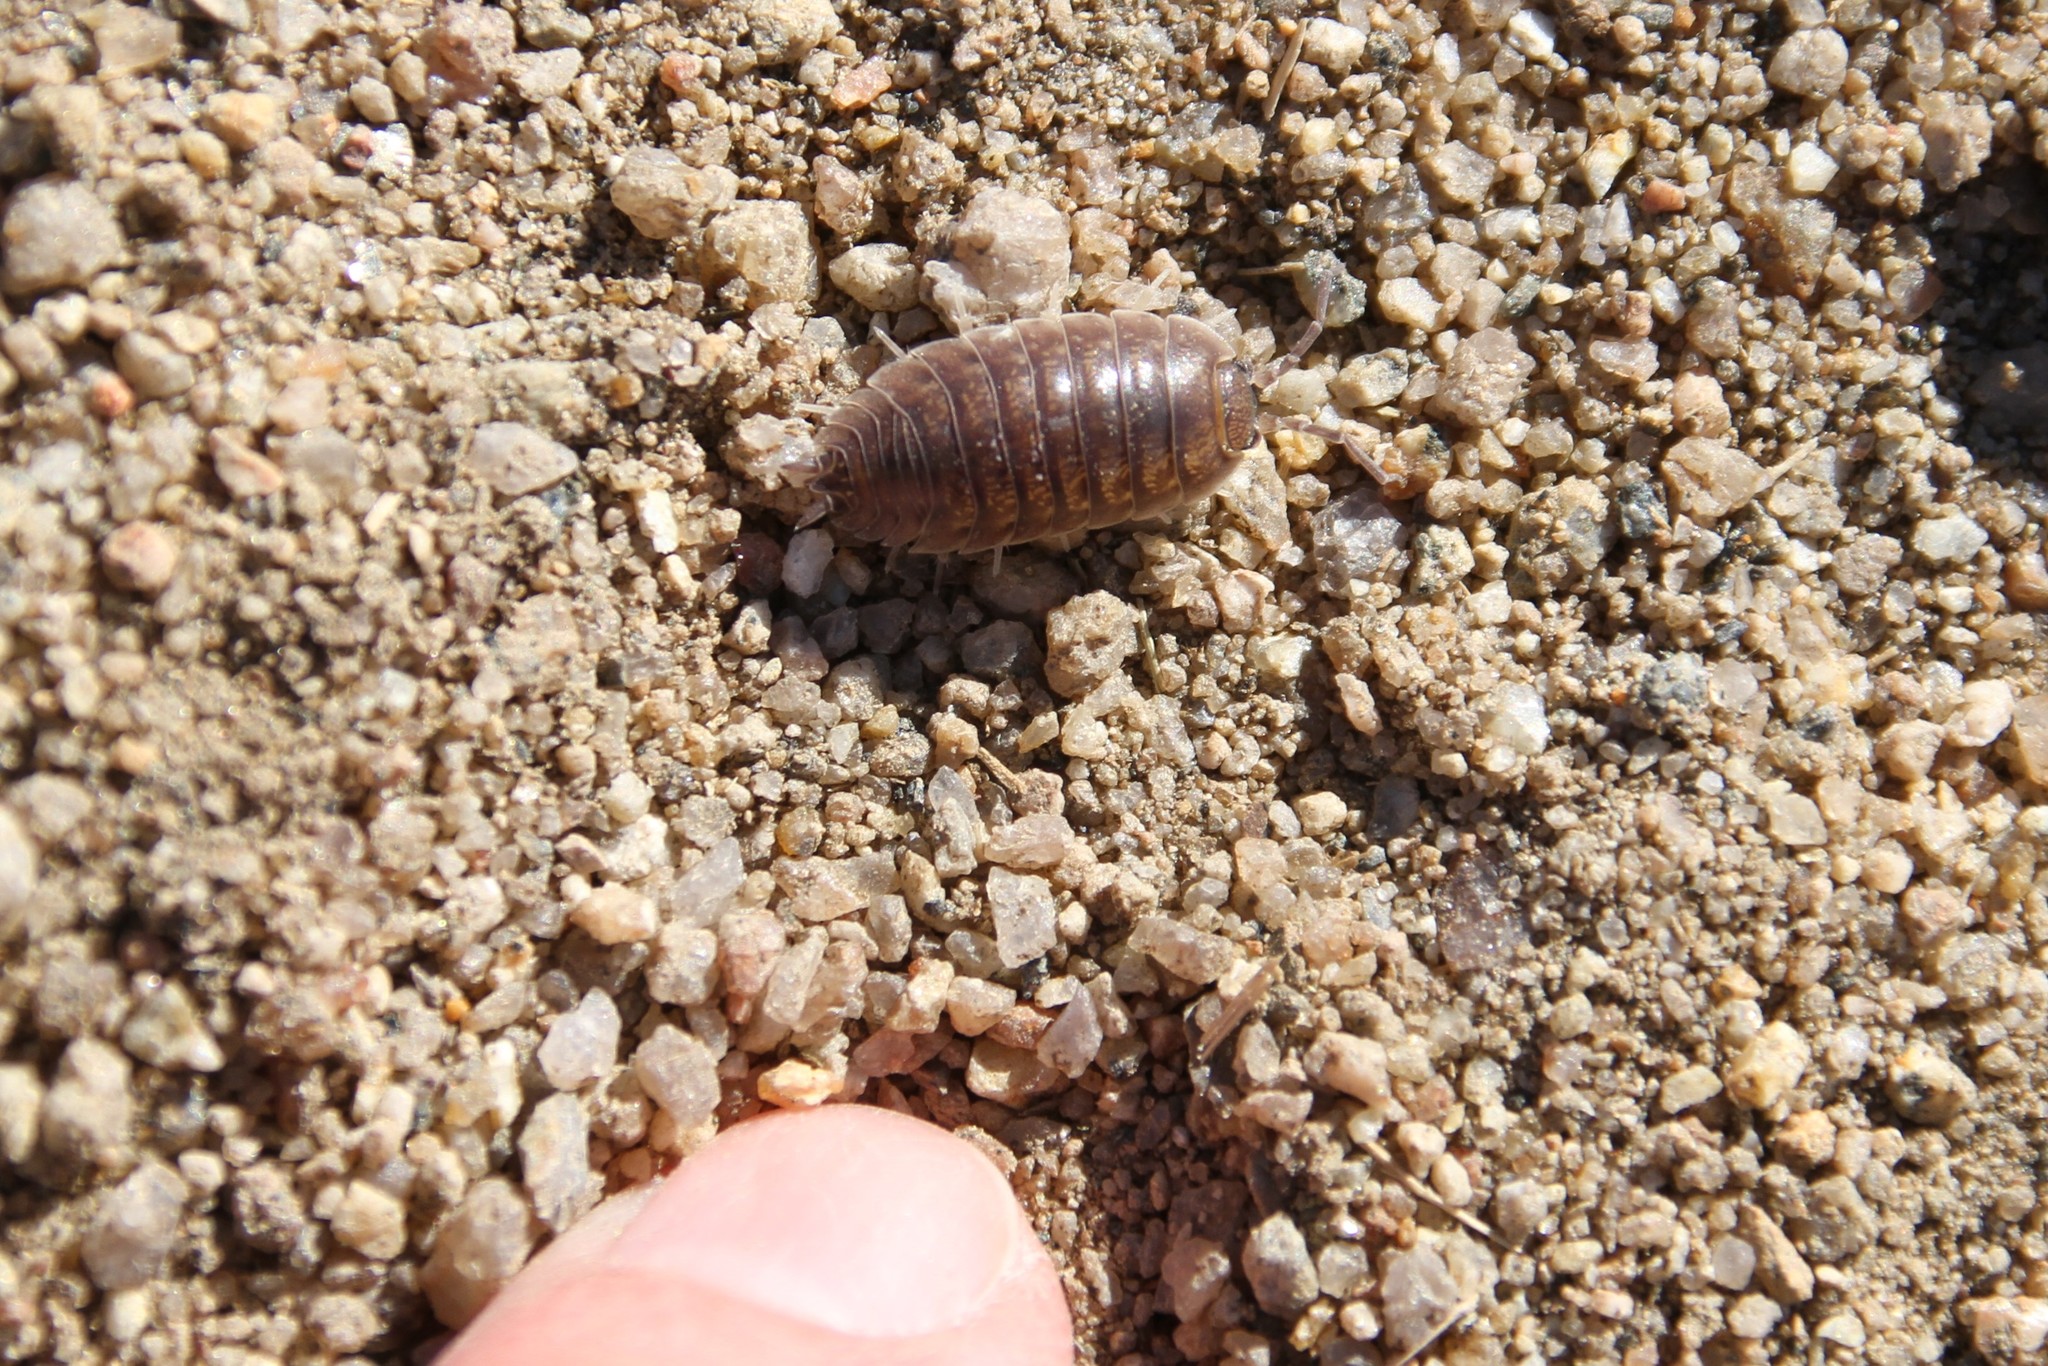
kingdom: Animalia
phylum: Arthropoda
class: Malacostraca
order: Isopoda
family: Porcellionidae
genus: Porcellio
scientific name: Porcellio laevis
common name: Swift woodlouse
